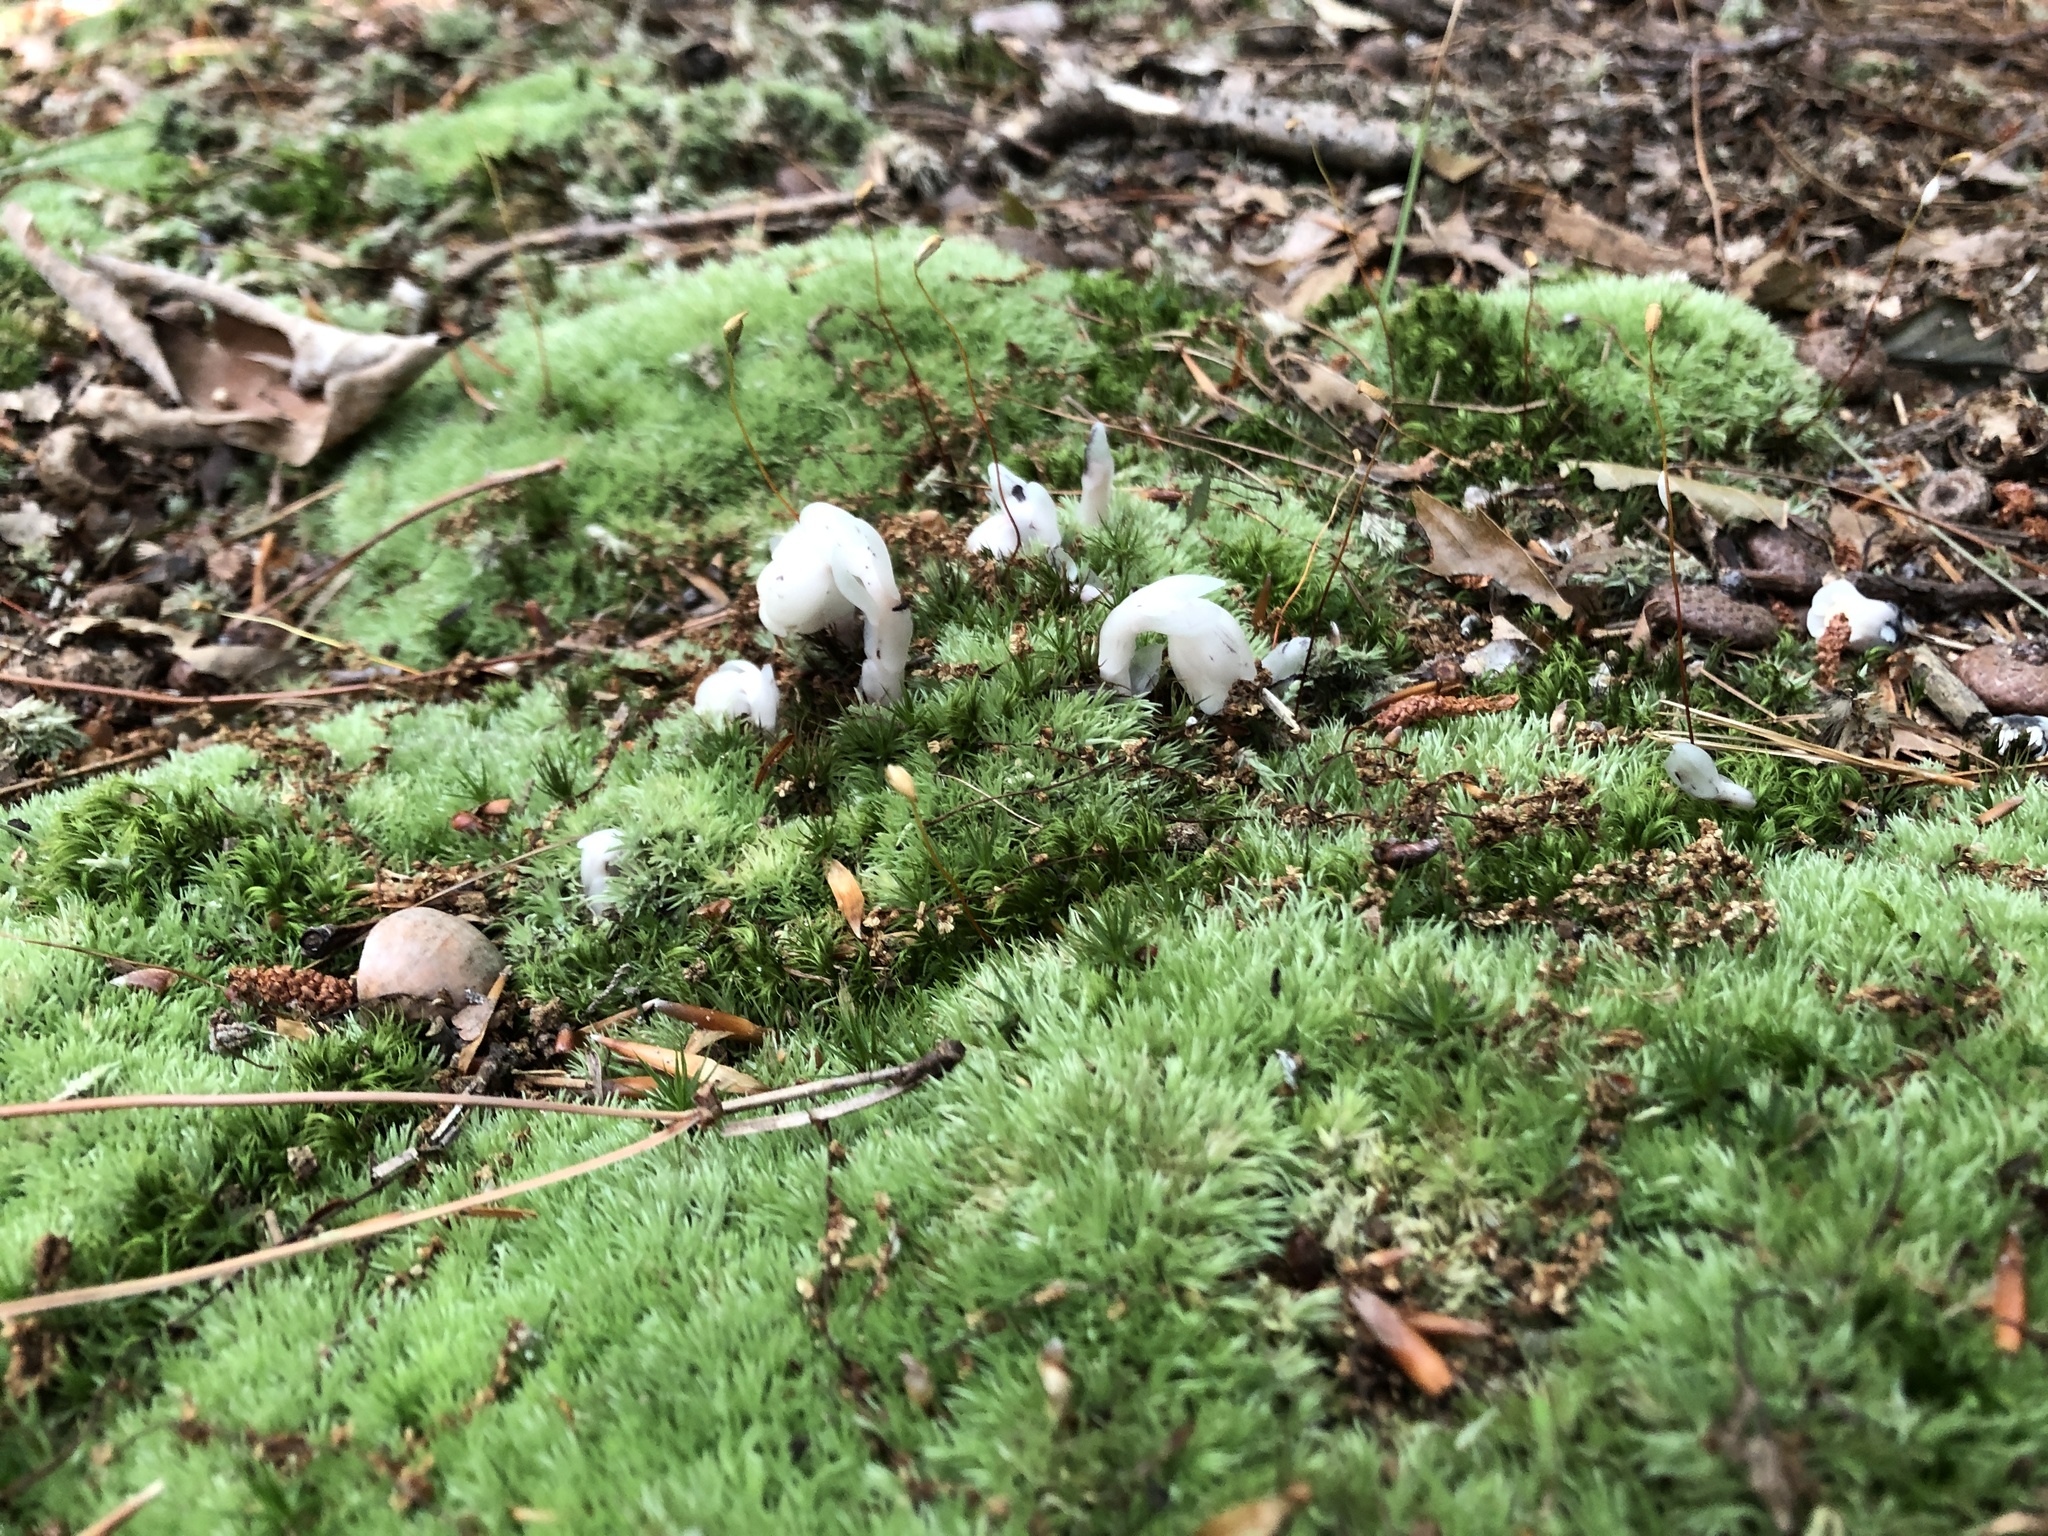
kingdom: Plantae
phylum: Tracheophyta
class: Magnoliopsida
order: Ericales
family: Ericaceae
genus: Monotropa
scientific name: Monotropa uniflora
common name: Convulsion root
